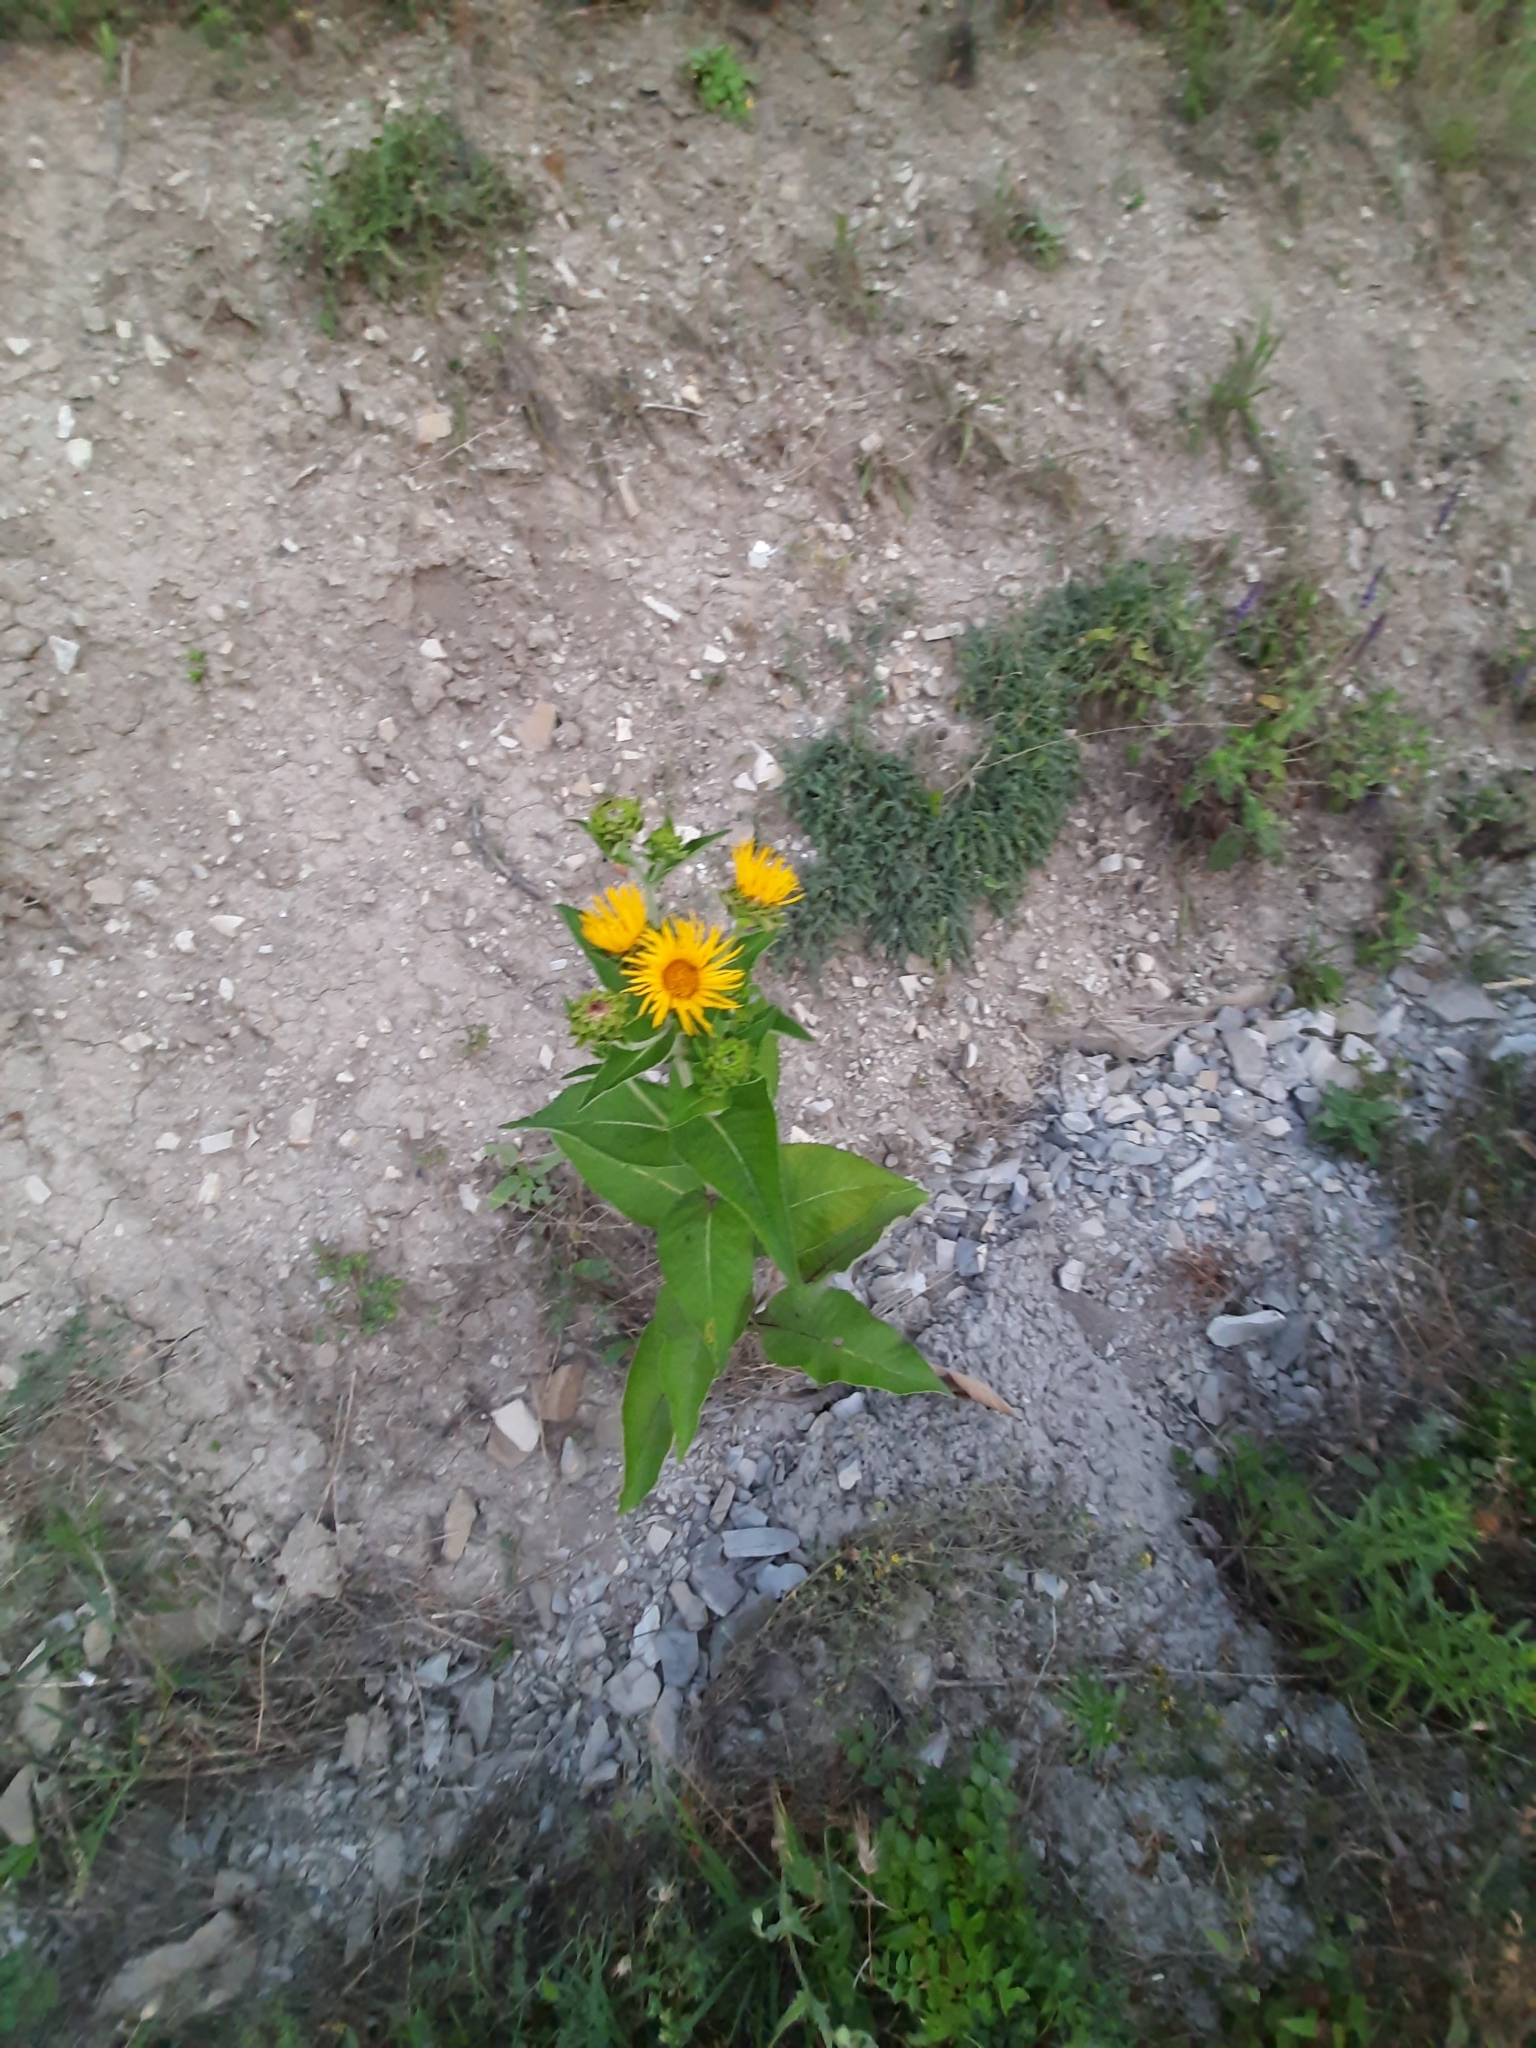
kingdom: Plantae
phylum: Tracheophyta
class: Magnoliopsida
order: Asterales
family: Asteraceae
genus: Inula
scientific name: Inula helenium
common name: Elecampane
